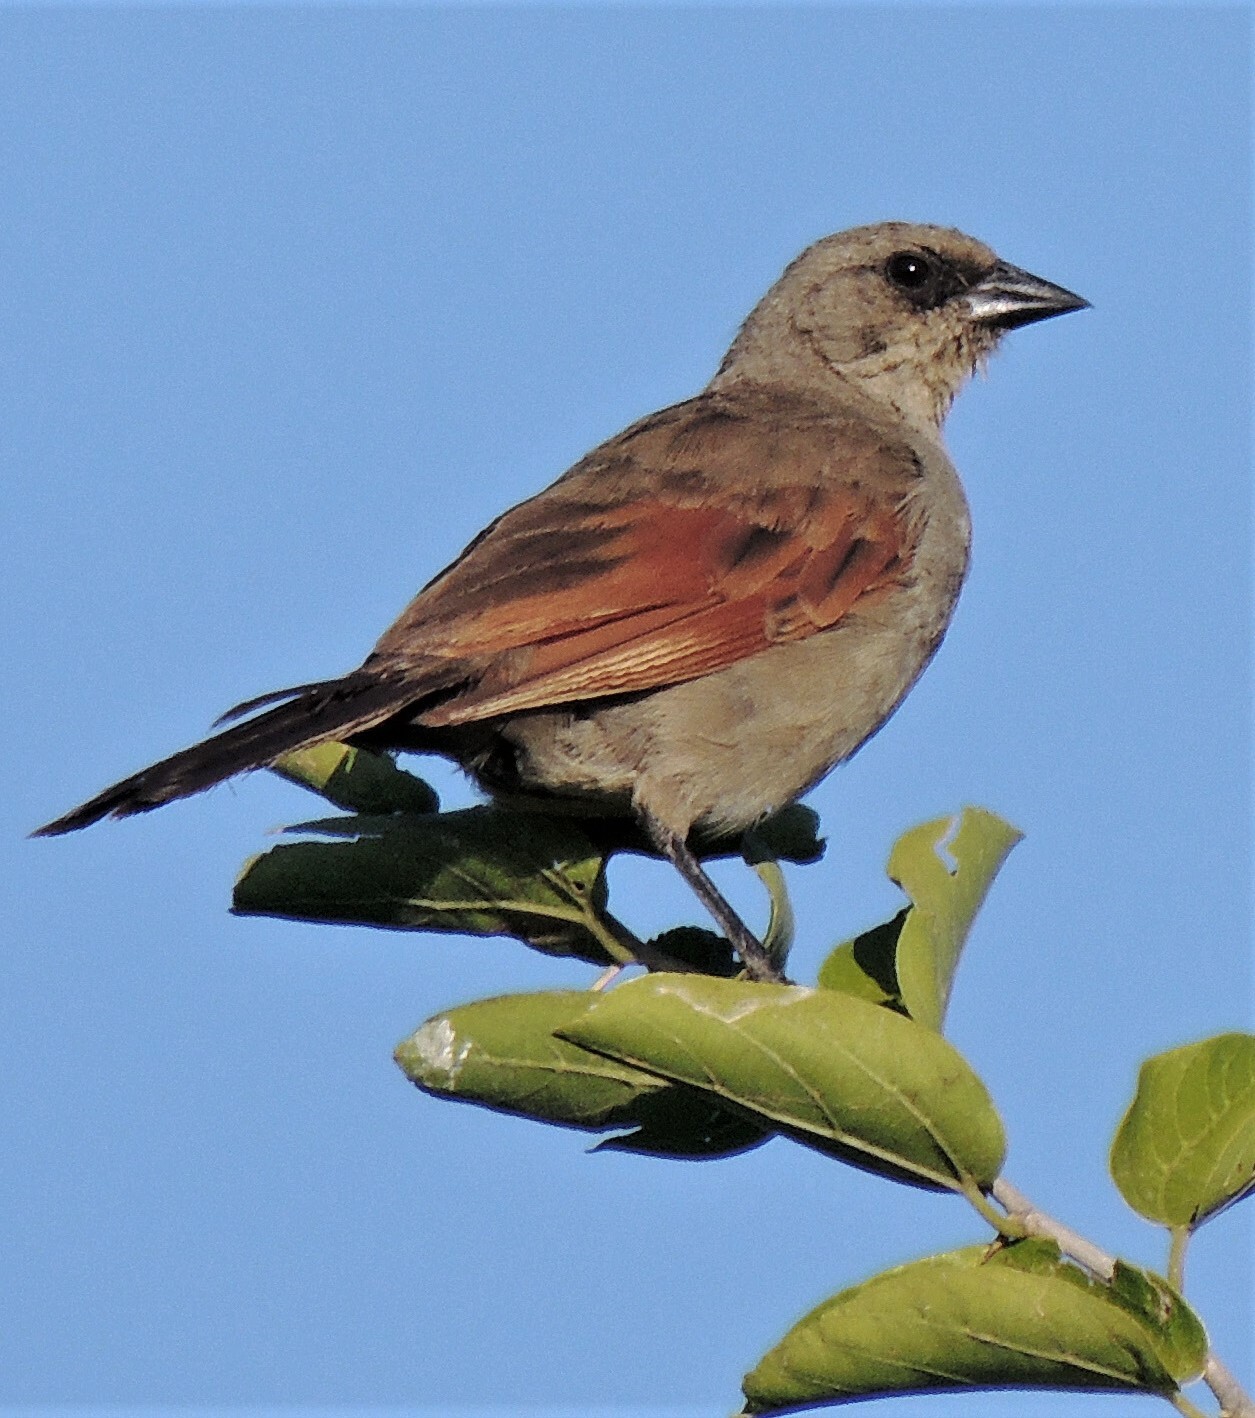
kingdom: Animalia
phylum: Chordata
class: Aves
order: Passeriformes
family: Icteridae
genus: Agelaioides
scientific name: Agelaioides badius
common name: Baywing
